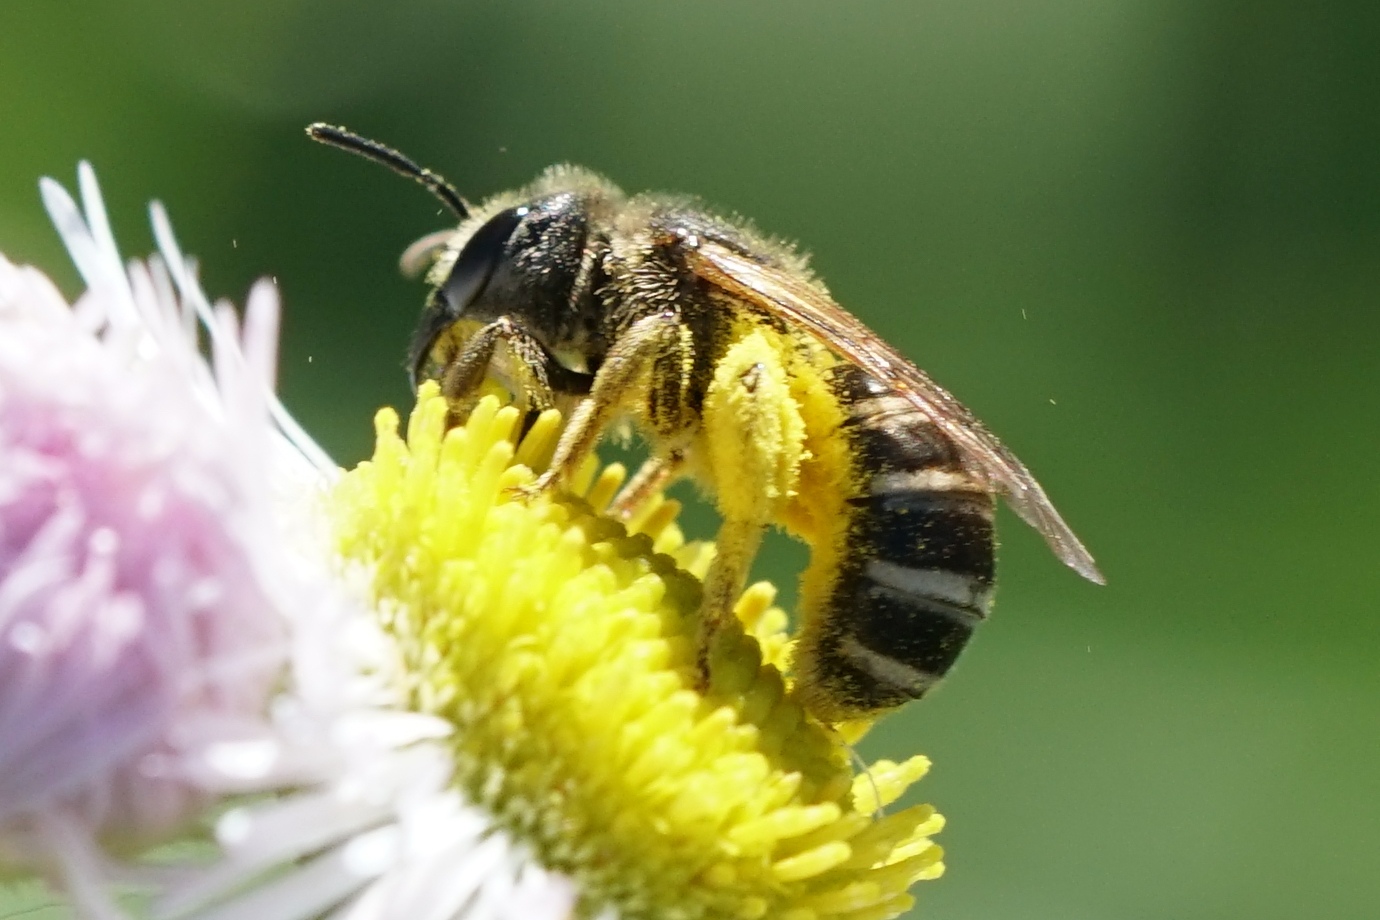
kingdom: Animalia
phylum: Arthropoda
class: Insecta
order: Hymenoptera
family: Halictidae
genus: Halictus
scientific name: Halictus ligatus
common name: Ligated furrow bee
